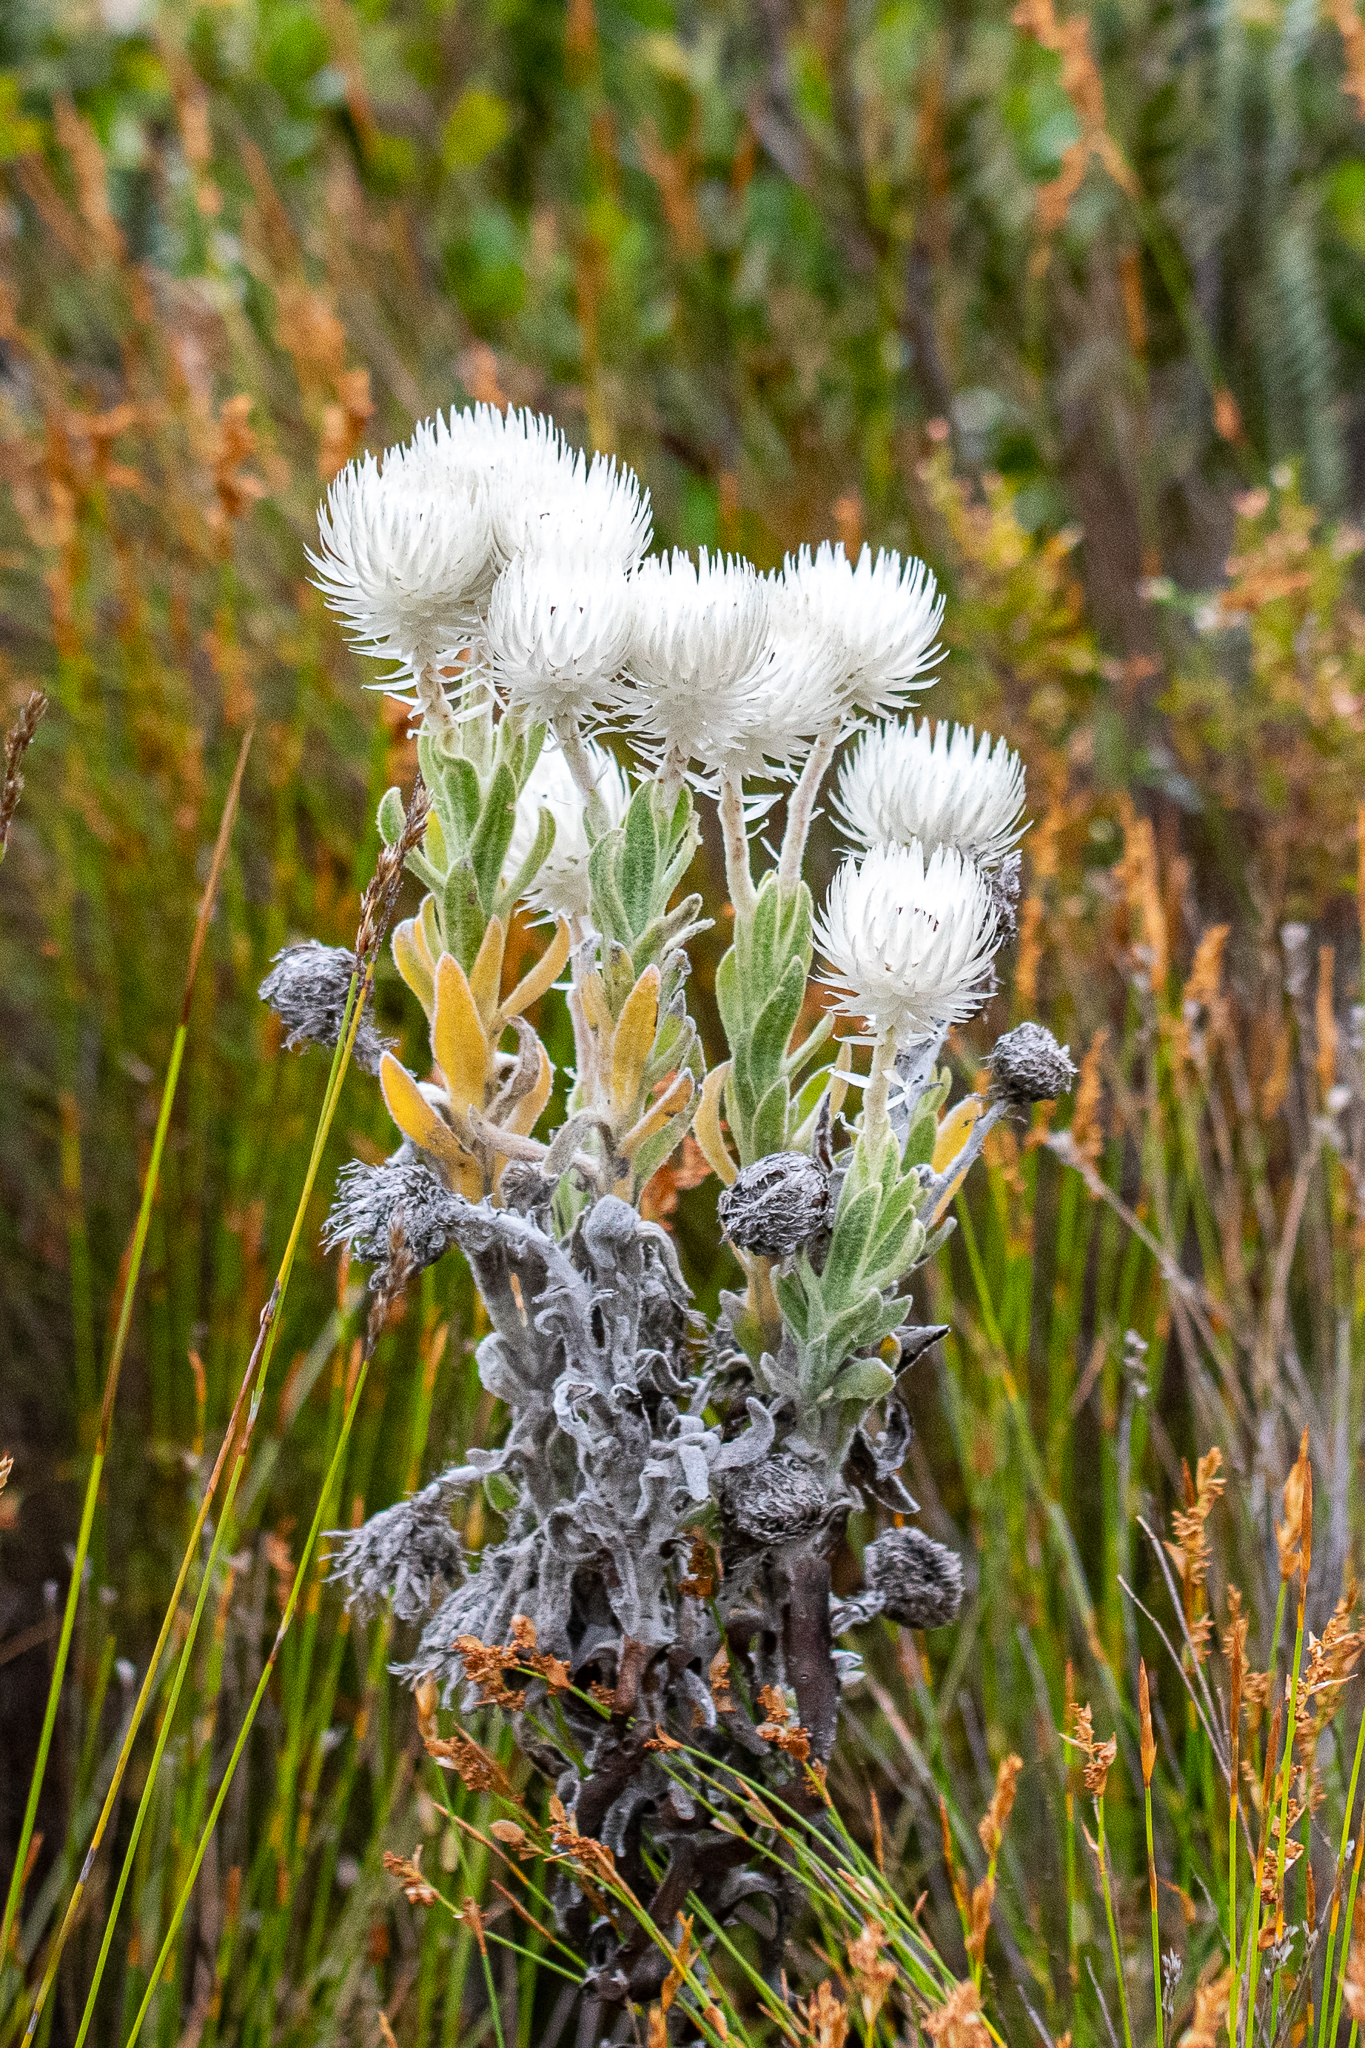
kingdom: Plantae
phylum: Tracheophyta
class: Magnoliopsida
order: Asterales
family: Asteraceae
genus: Syncarpha
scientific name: Syncarpha vestita
